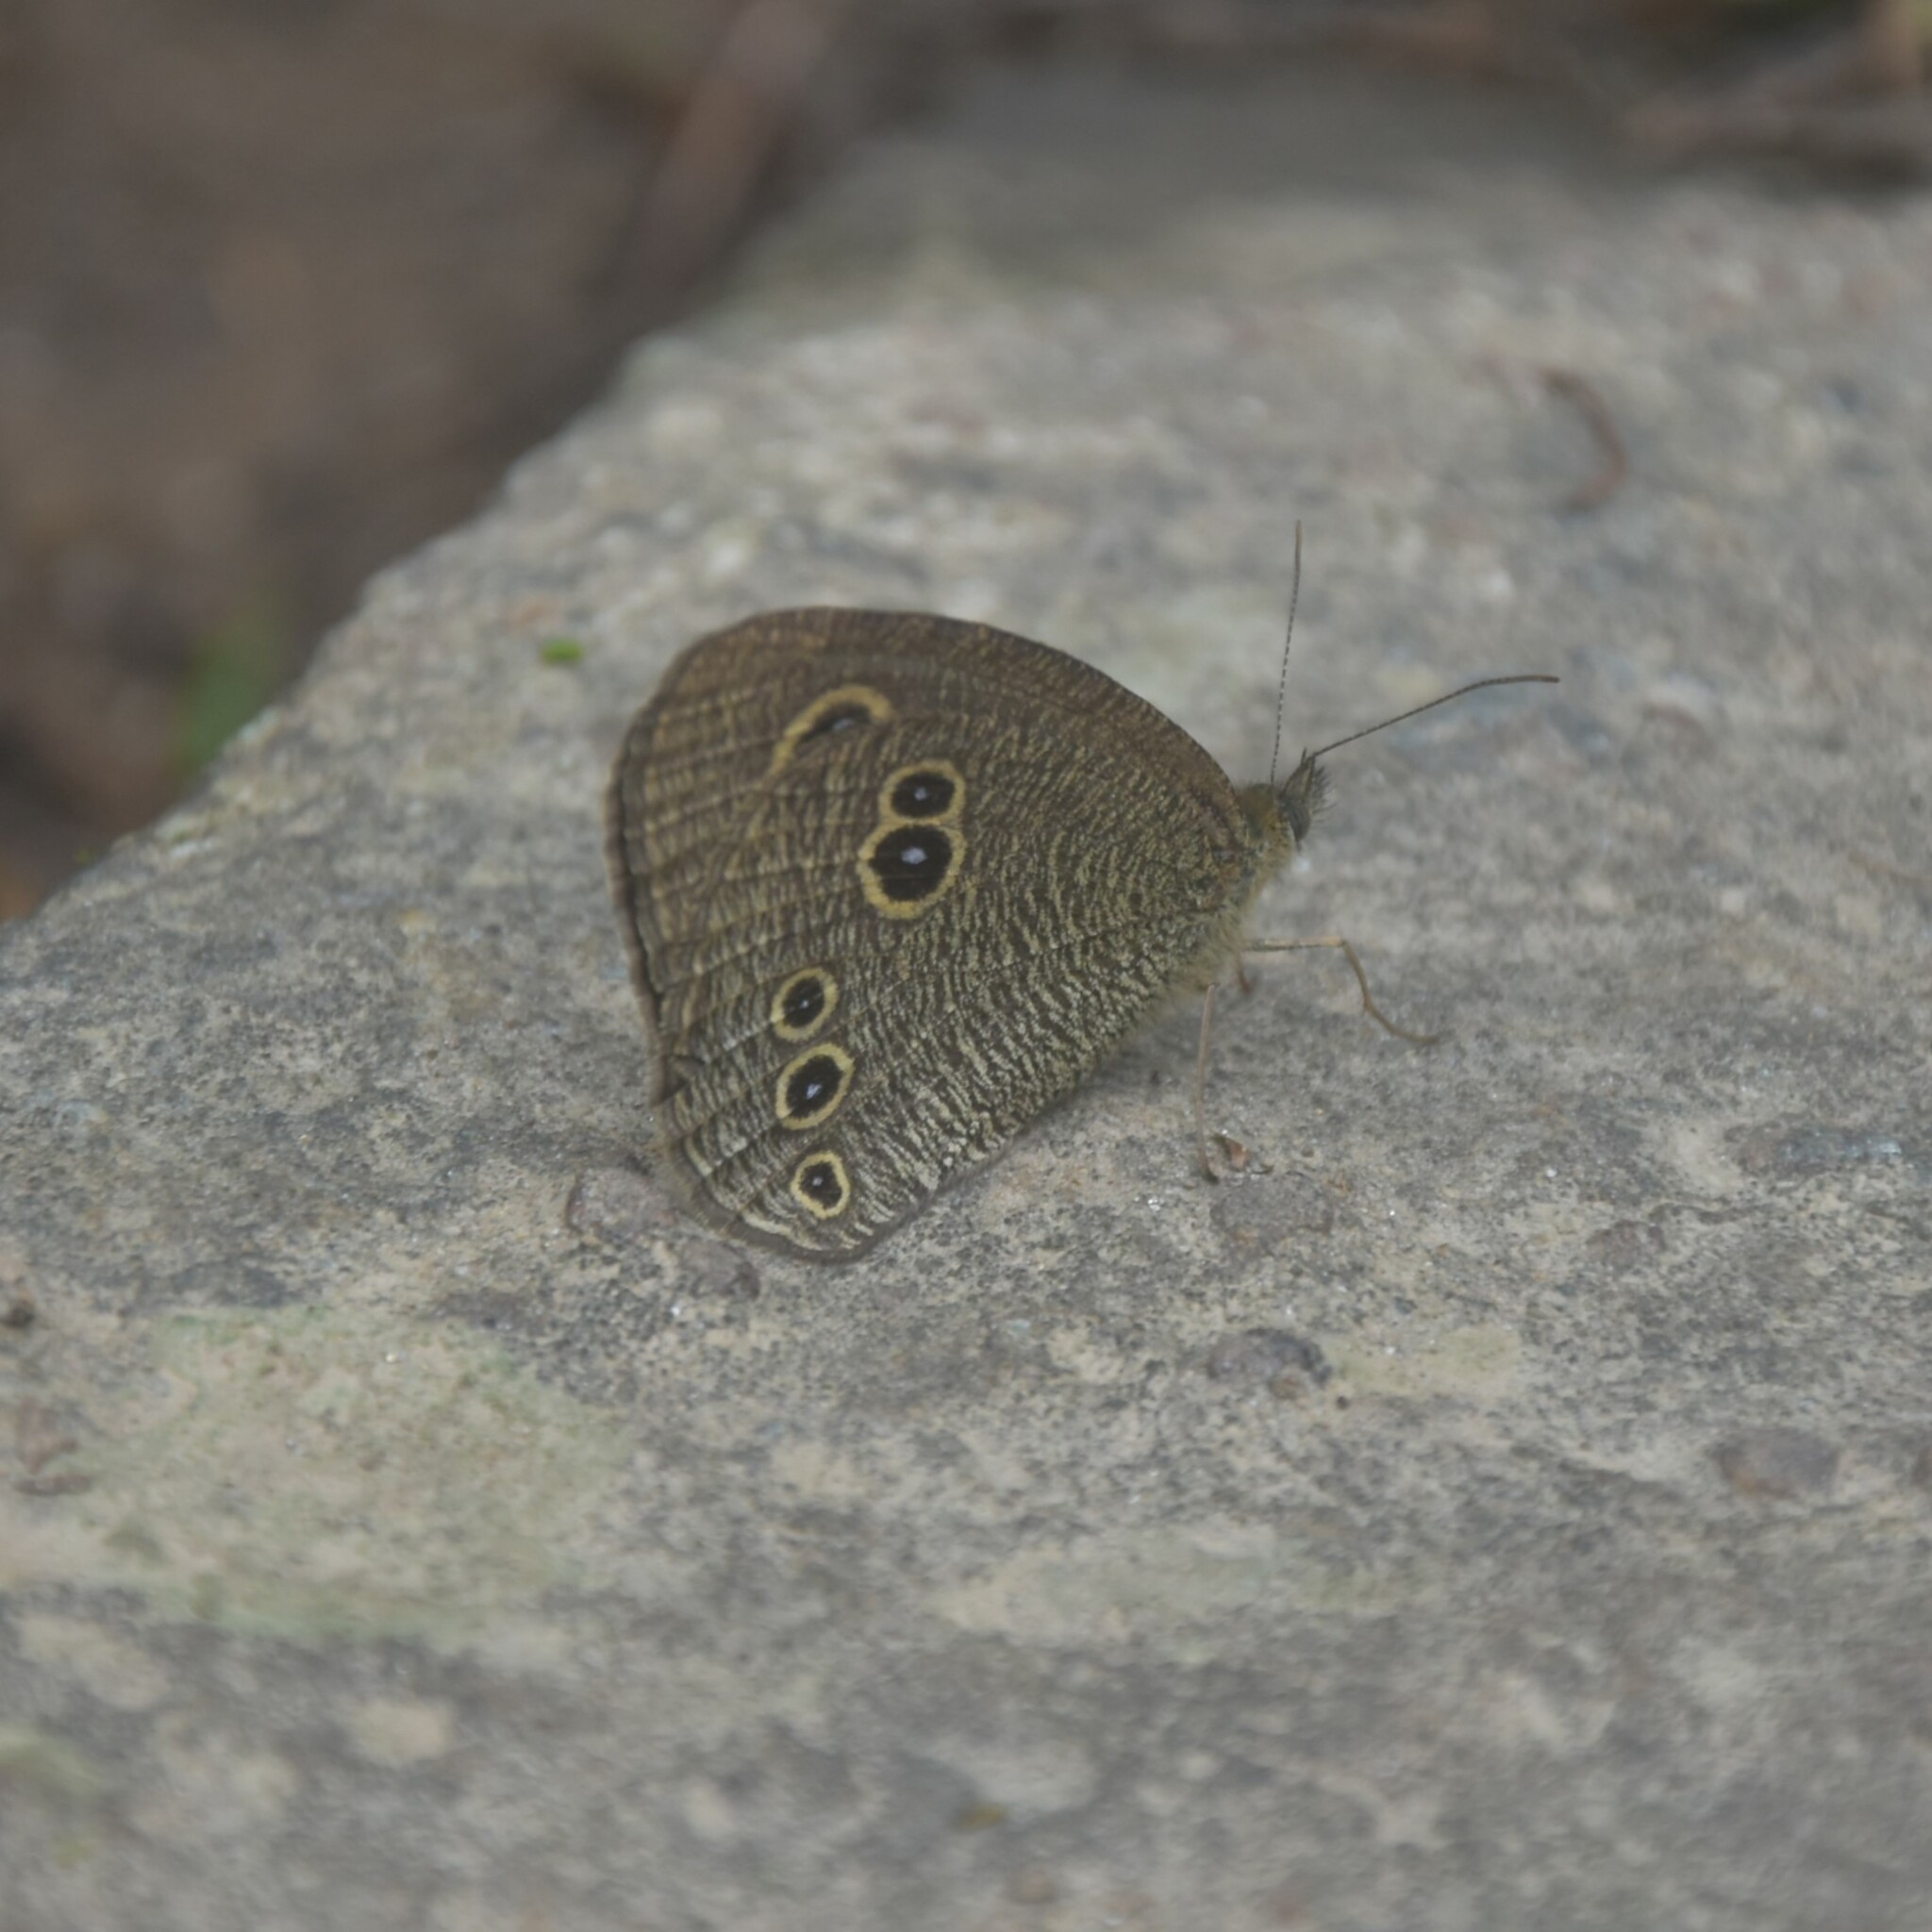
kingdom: Animalia
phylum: Arthropoda
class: Insecta
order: Lepidoptera
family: Nymphalidae
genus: Ypthima
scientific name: Ypthima nikaea
